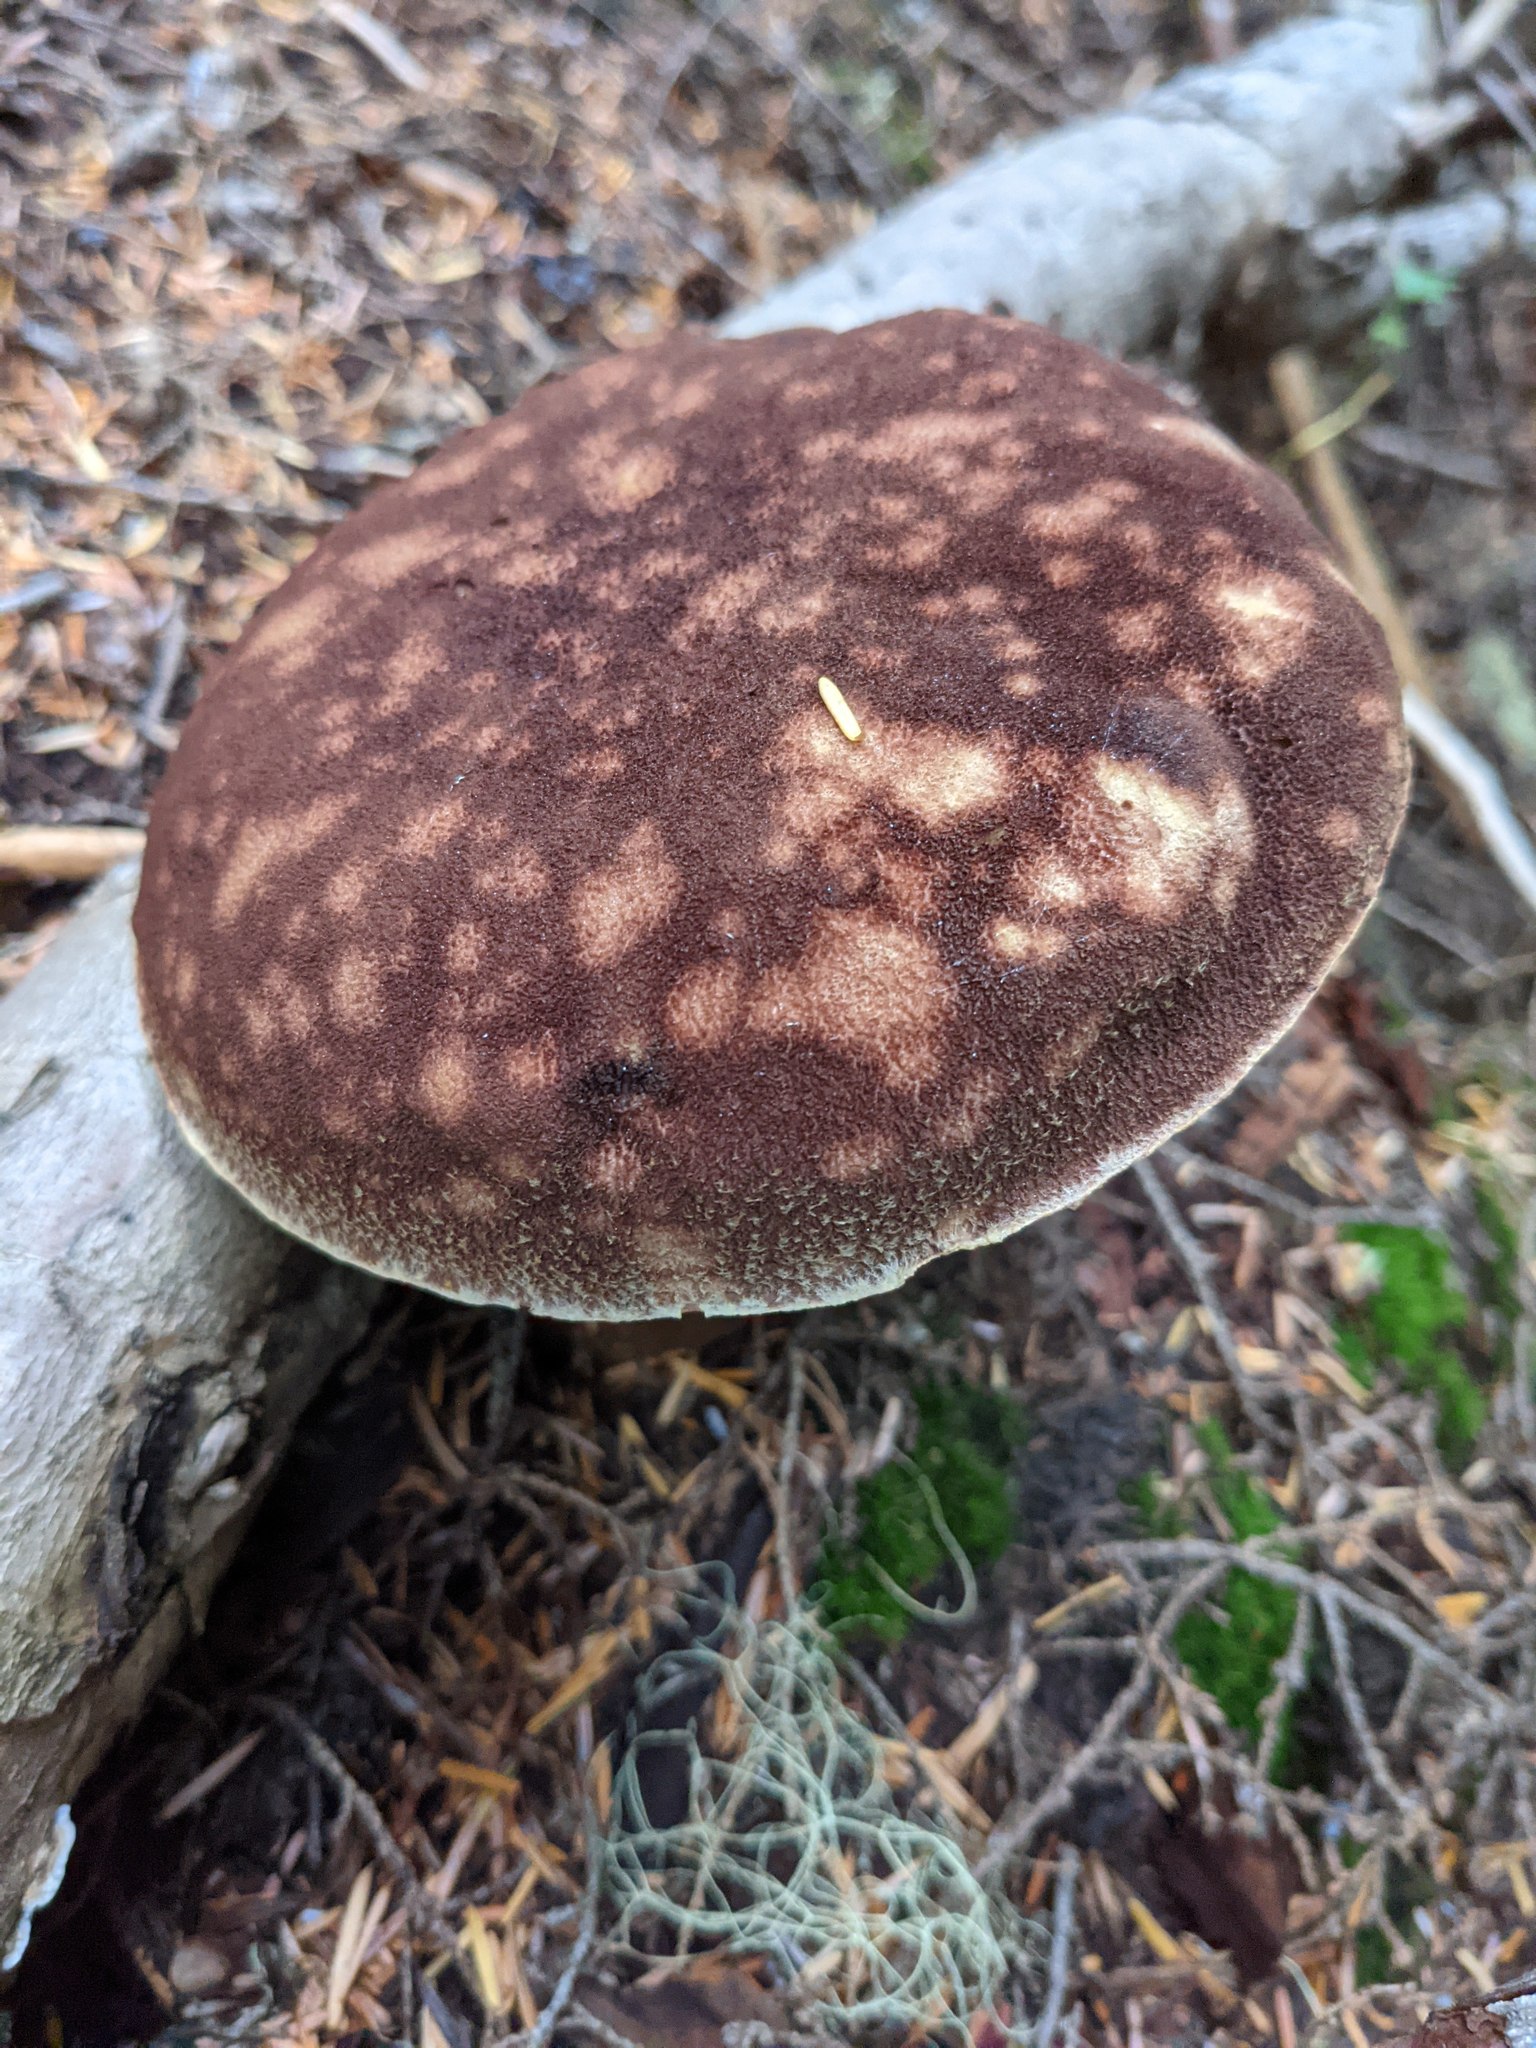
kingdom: Fungi
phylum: Basidiomycota
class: Agaricomycetes
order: Boletales
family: Boletaceae
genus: Aureoboletus
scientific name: Aureoboletus mirabilis
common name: Admirable bolete
